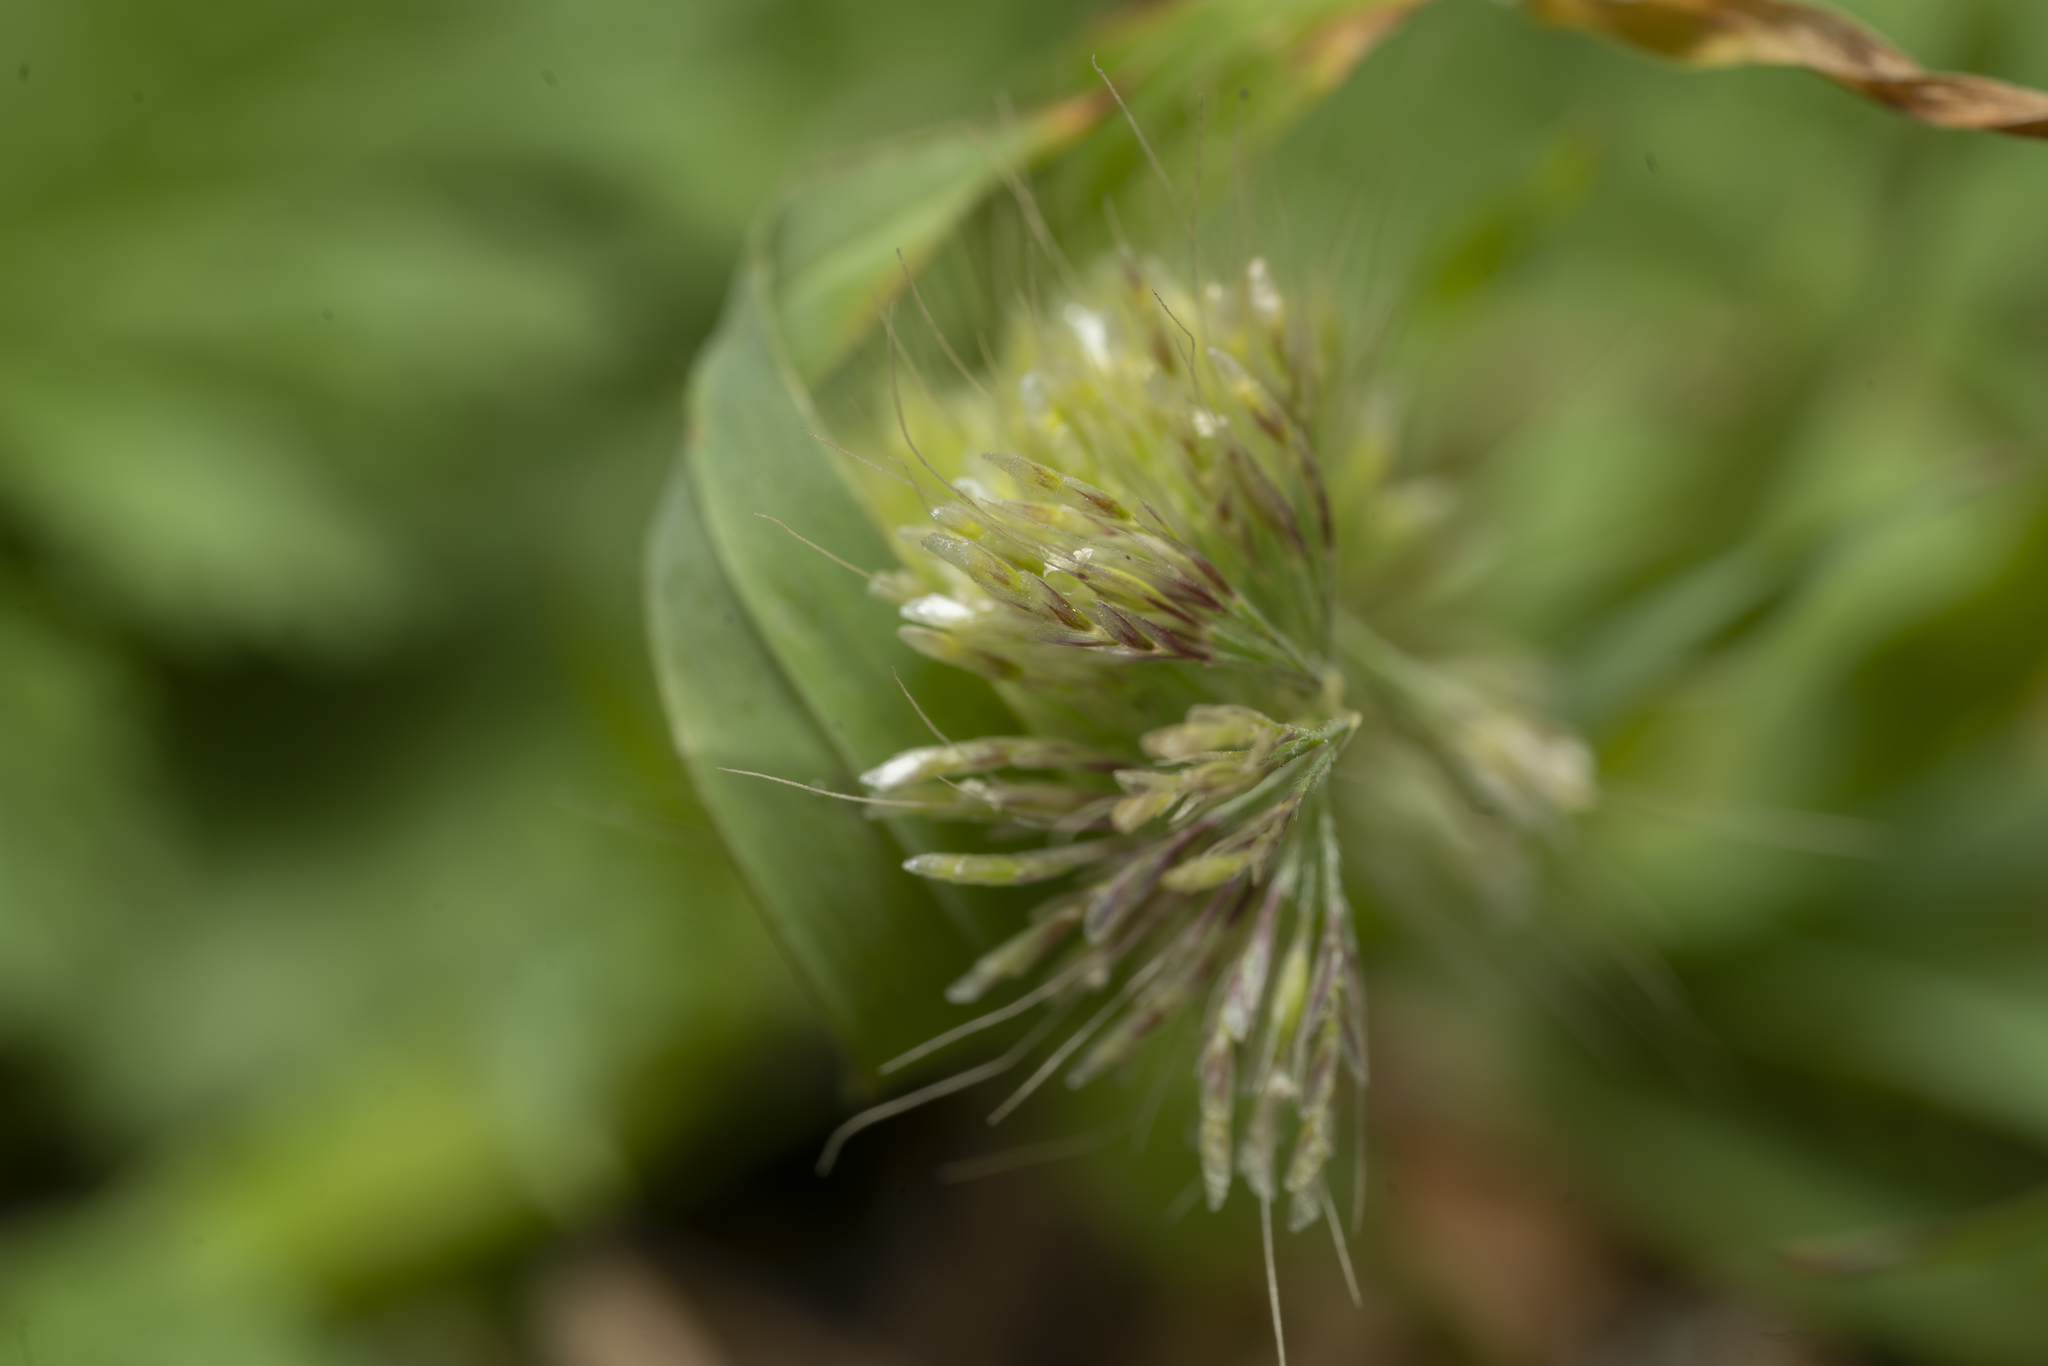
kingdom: Plantae
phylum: Tracheophyta
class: Liliopsida
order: Poales
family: Poaceae
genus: Lamarckia
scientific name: Lamarckia aurea
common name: Golden dog's-tail
